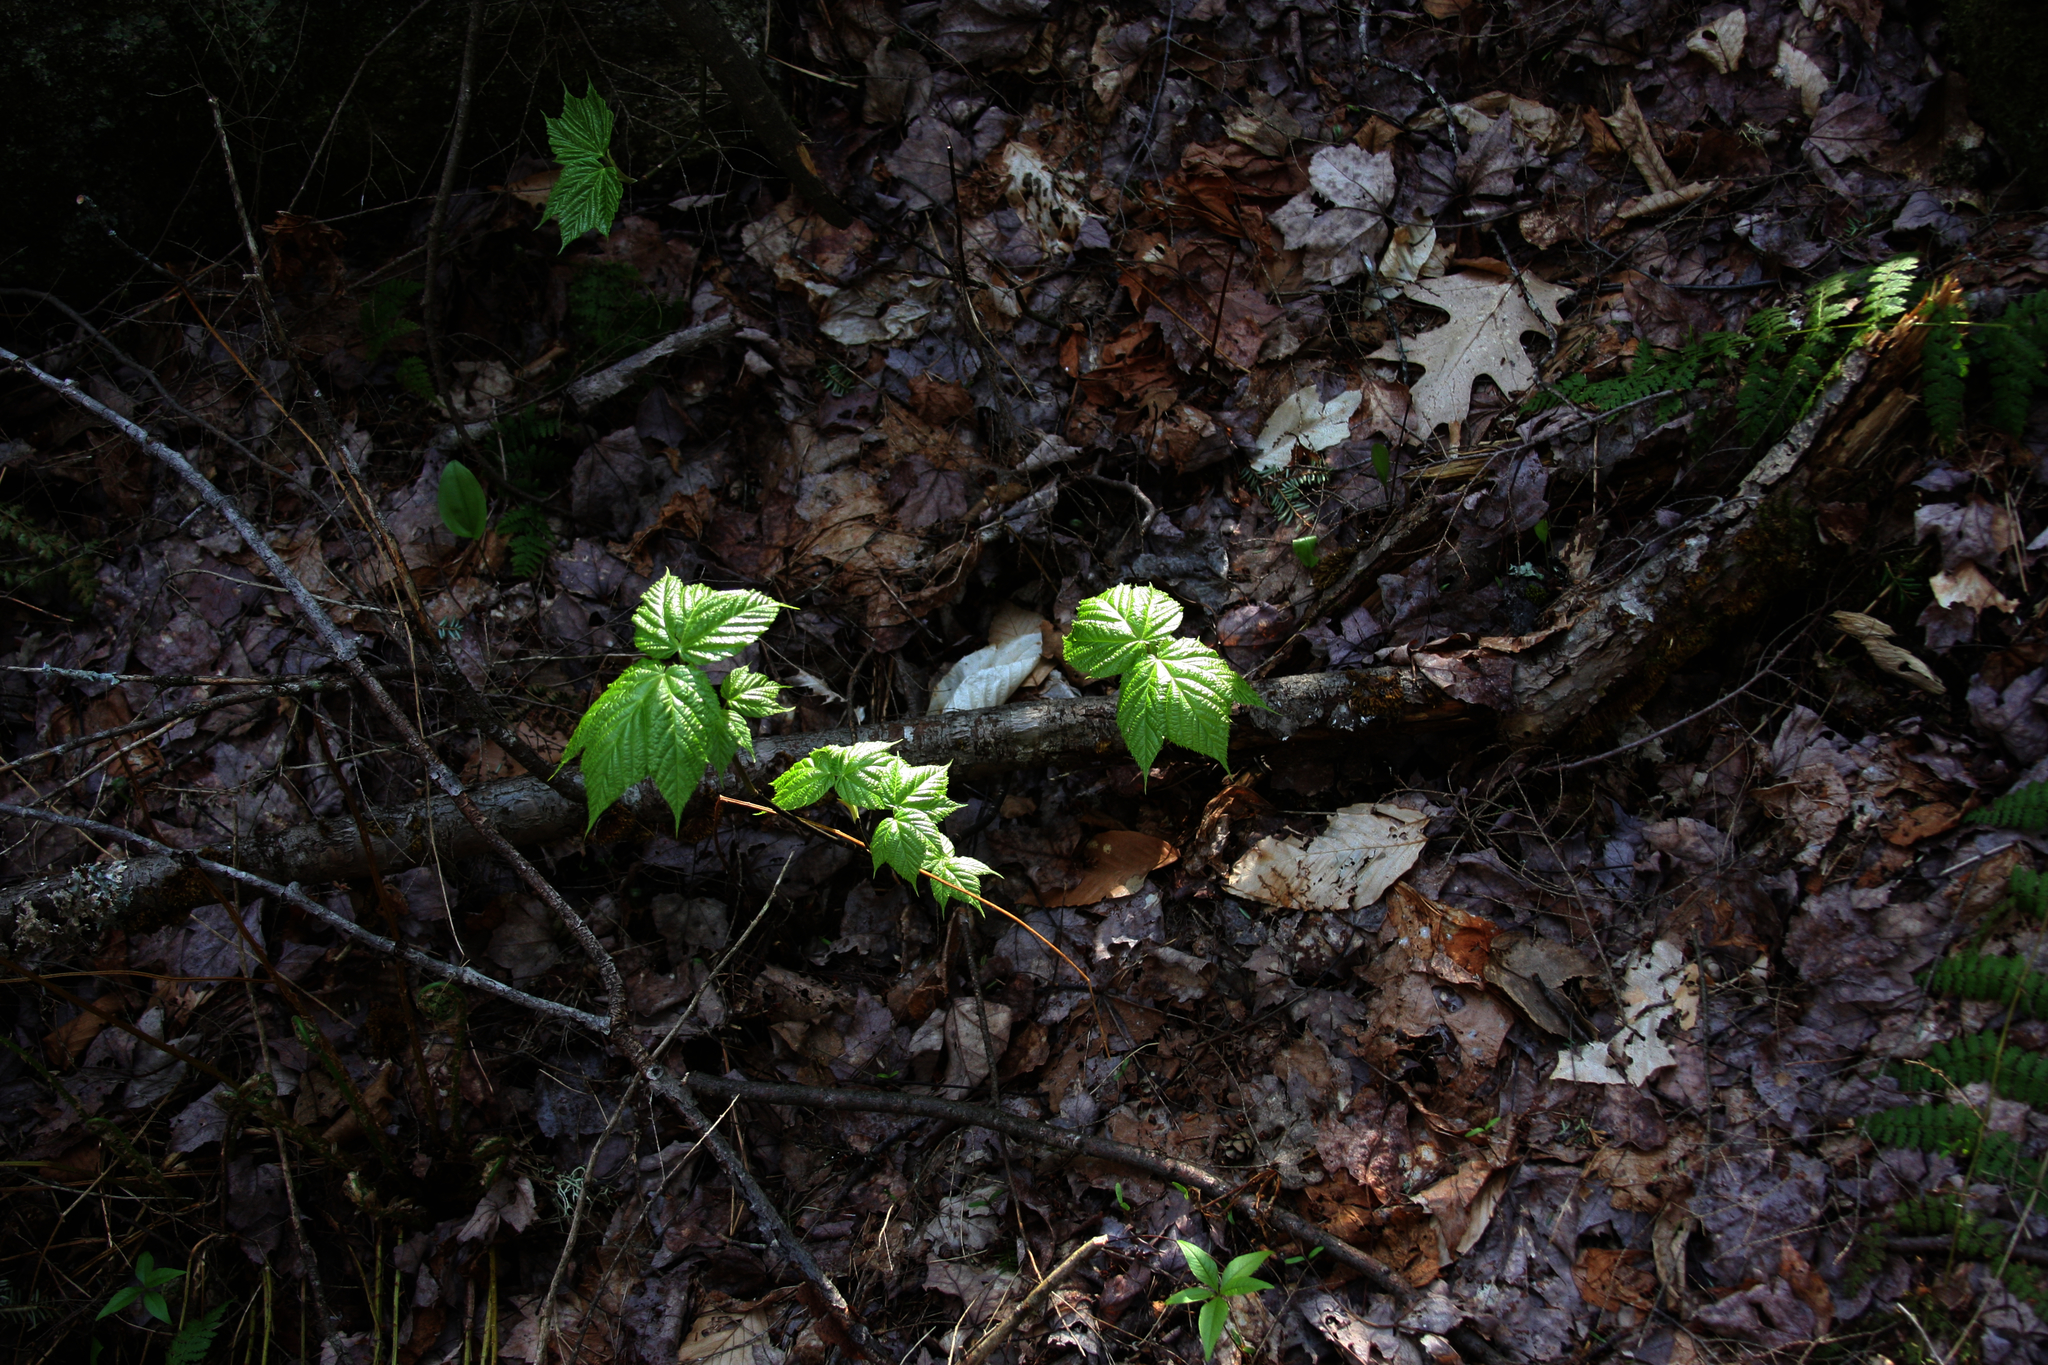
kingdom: Plantae
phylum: Tracheophyta
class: Magnoliopsida
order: Sapindales
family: Sapindaceae
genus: Acer
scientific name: Acer pensylvanicum
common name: Moosewood
